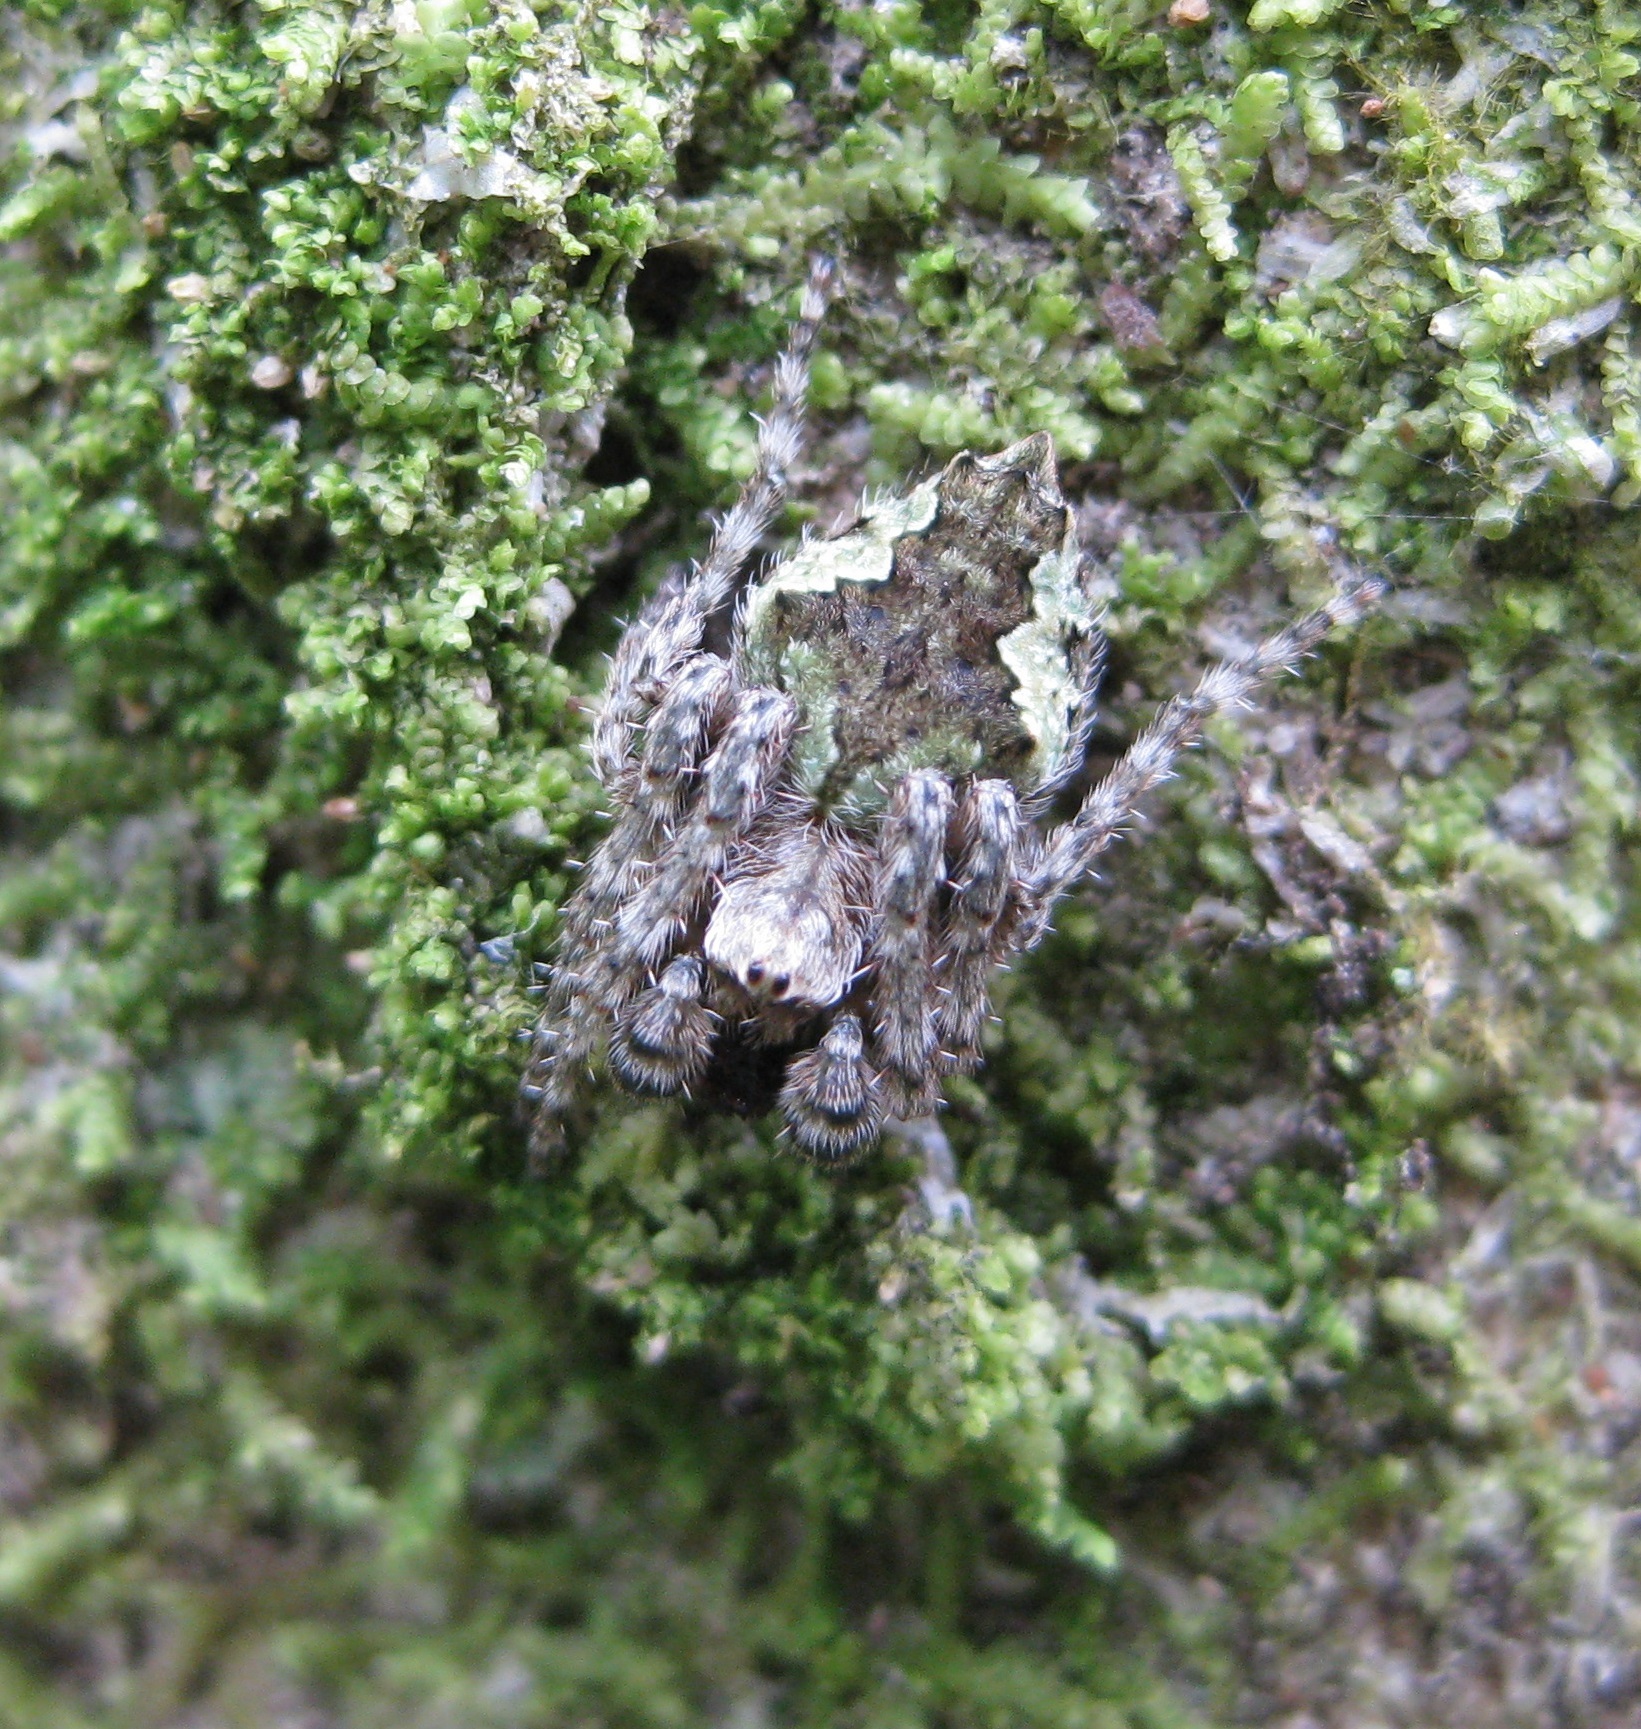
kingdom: Animalia
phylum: Arthropoda
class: Arachnida
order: Araneae
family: Araneidae
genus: Eriophora
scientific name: Eriophora pustulosa
